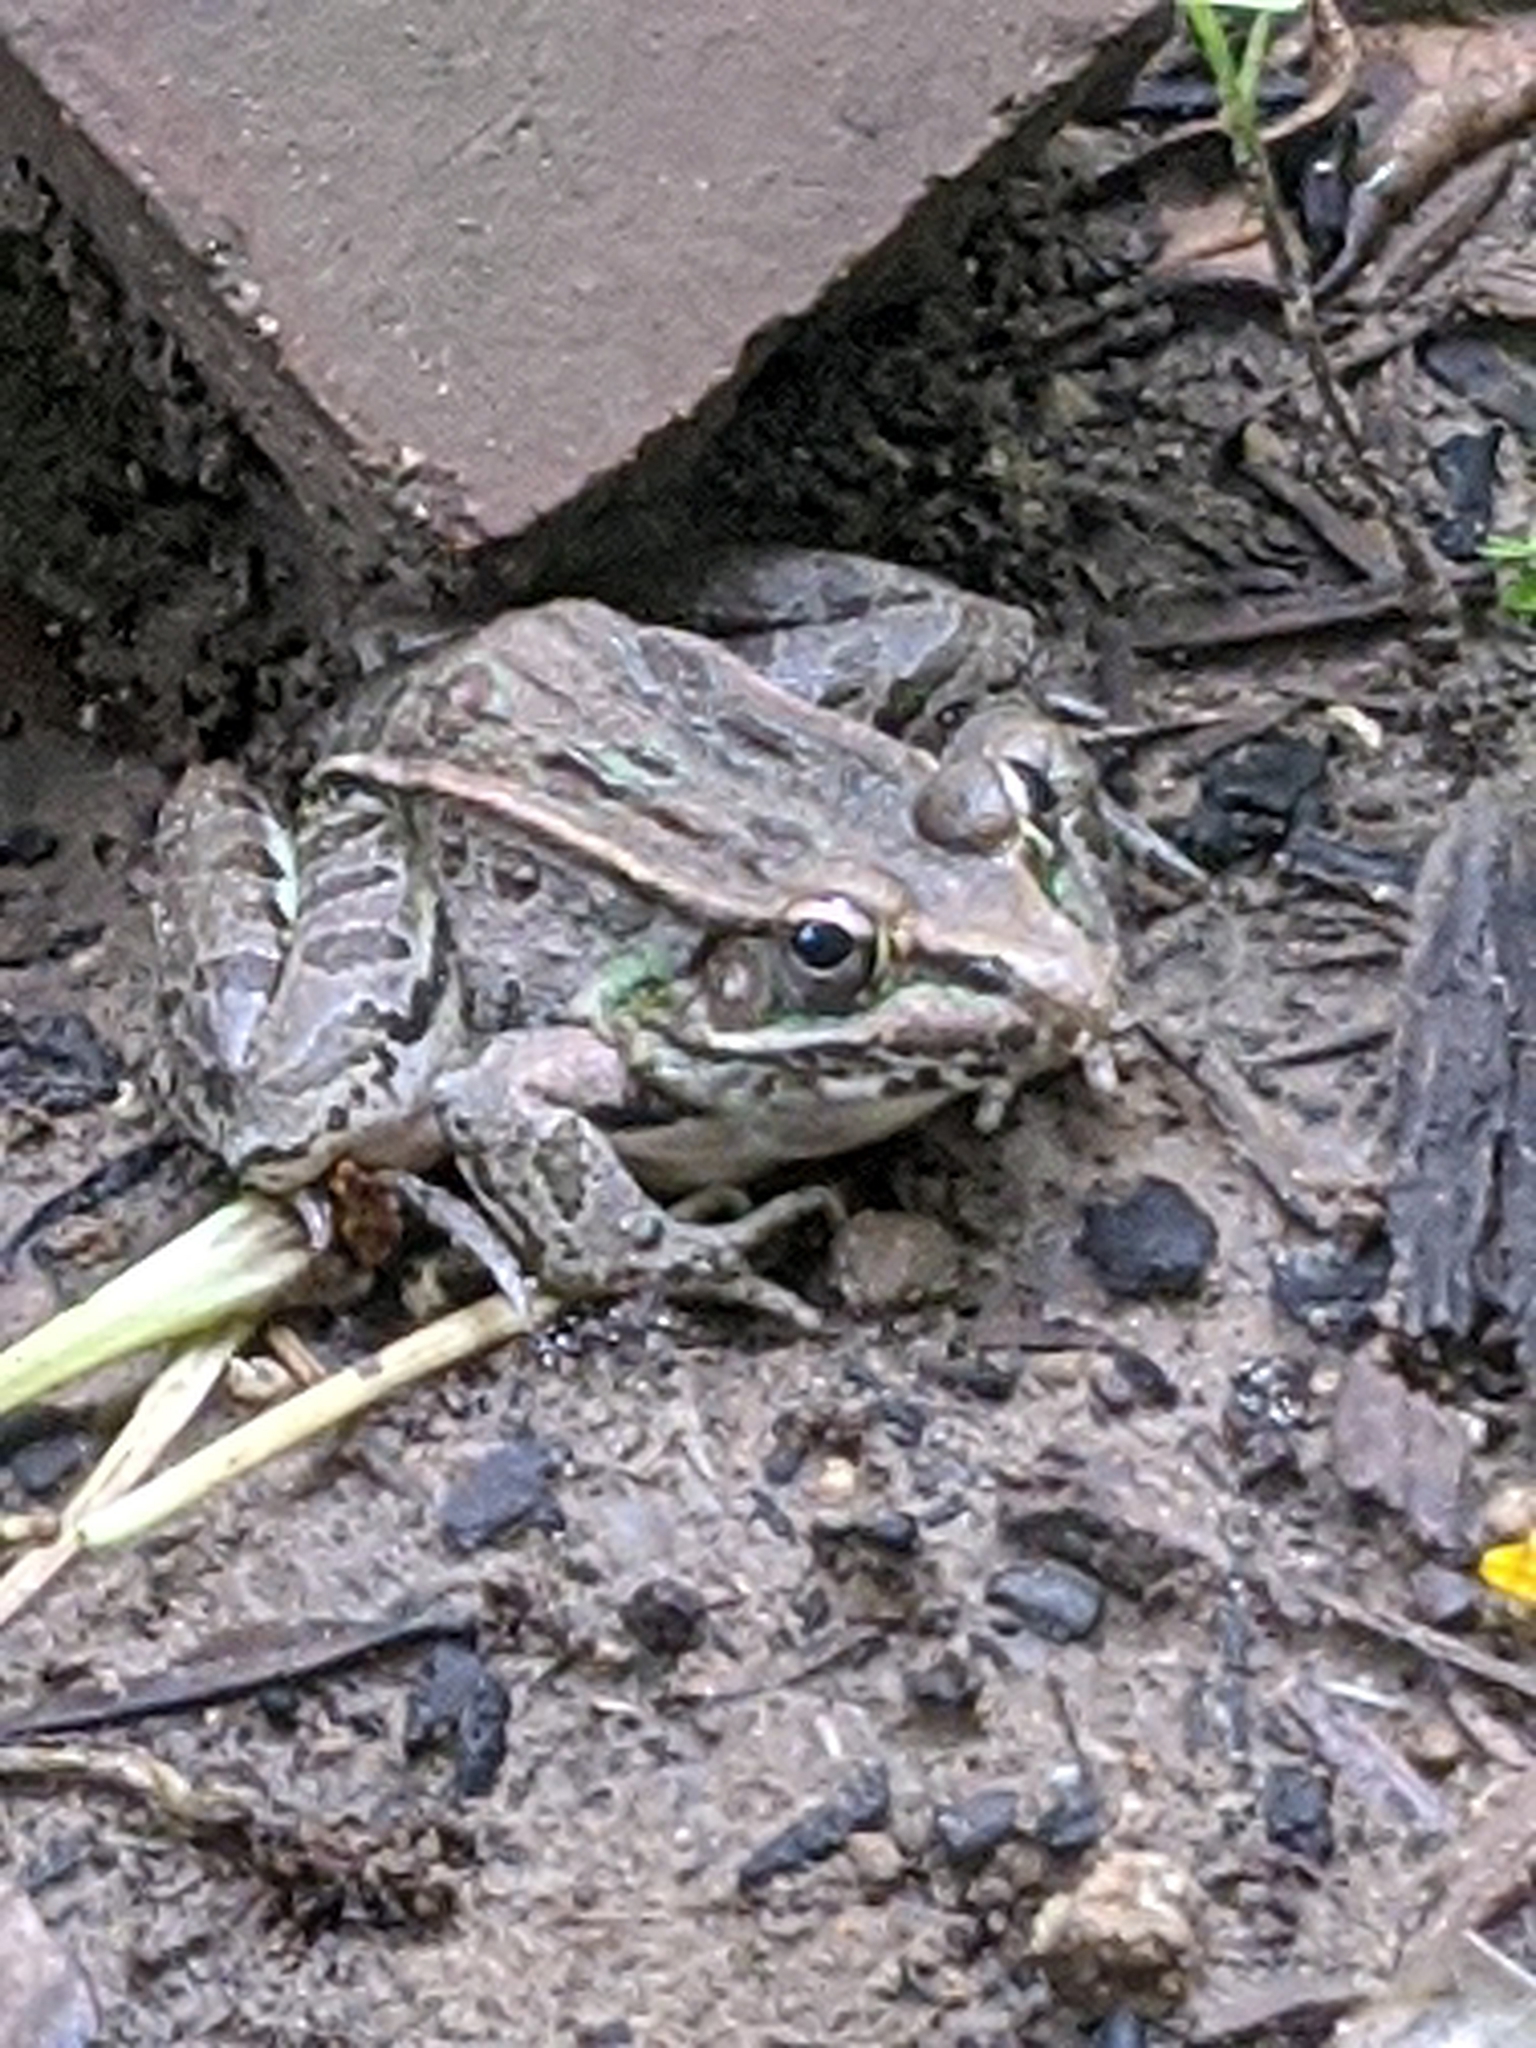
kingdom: Animalia
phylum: Chordata
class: Amphibia
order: Anura
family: Ranidae
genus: Lithobates
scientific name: Lithobates sphenocephalus
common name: Southern leopard frog
